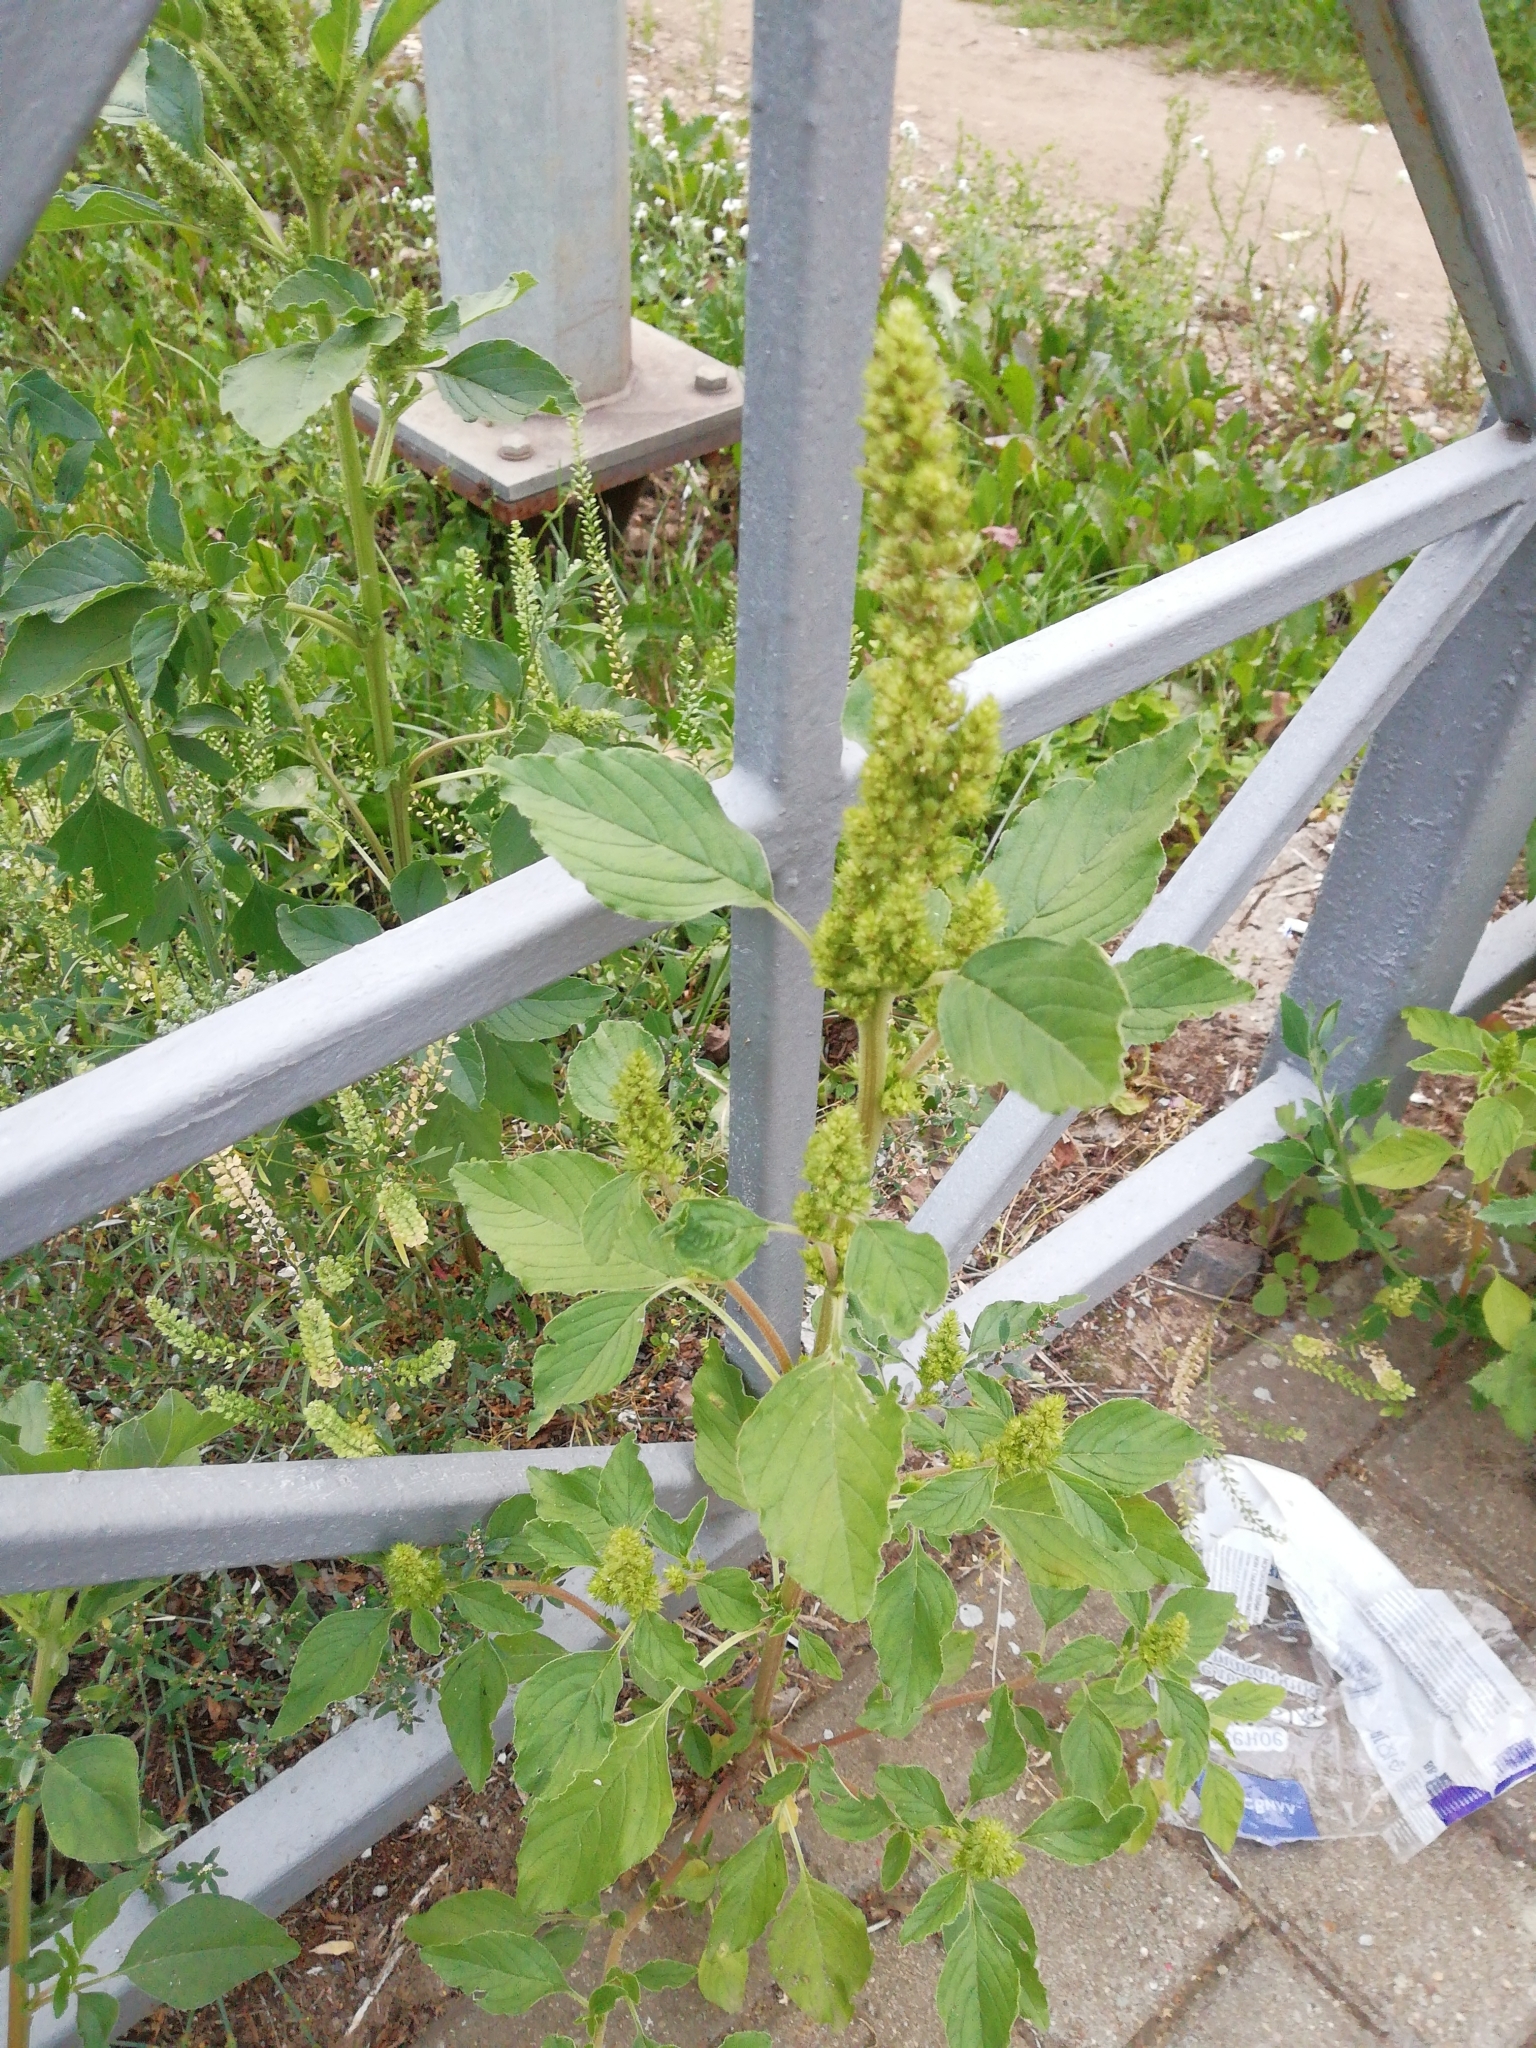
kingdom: Plantae
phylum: Tracheophyta
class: Magnoliopsida
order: Caryophyllales
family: Amaranthaceae
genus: Amaranthus
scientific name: Amaranthus retroflexus
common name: Redroot amaranth
